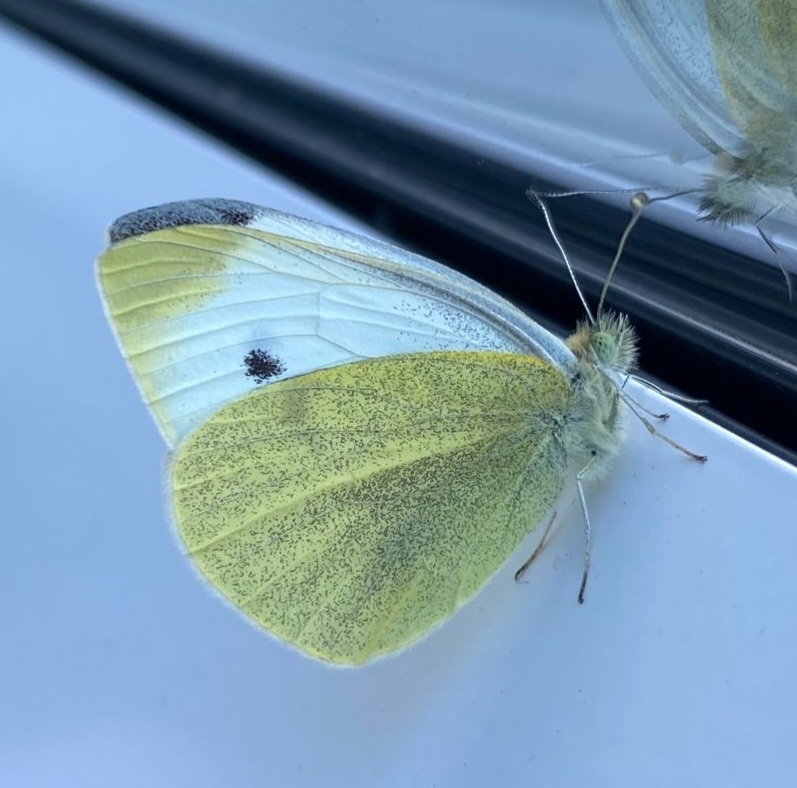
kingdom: Animalia
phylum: Arthropoda
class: Insecta
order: Lepidoptera
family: Pieridae
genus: Pieris
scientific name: Pieris rapae
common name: Small white
